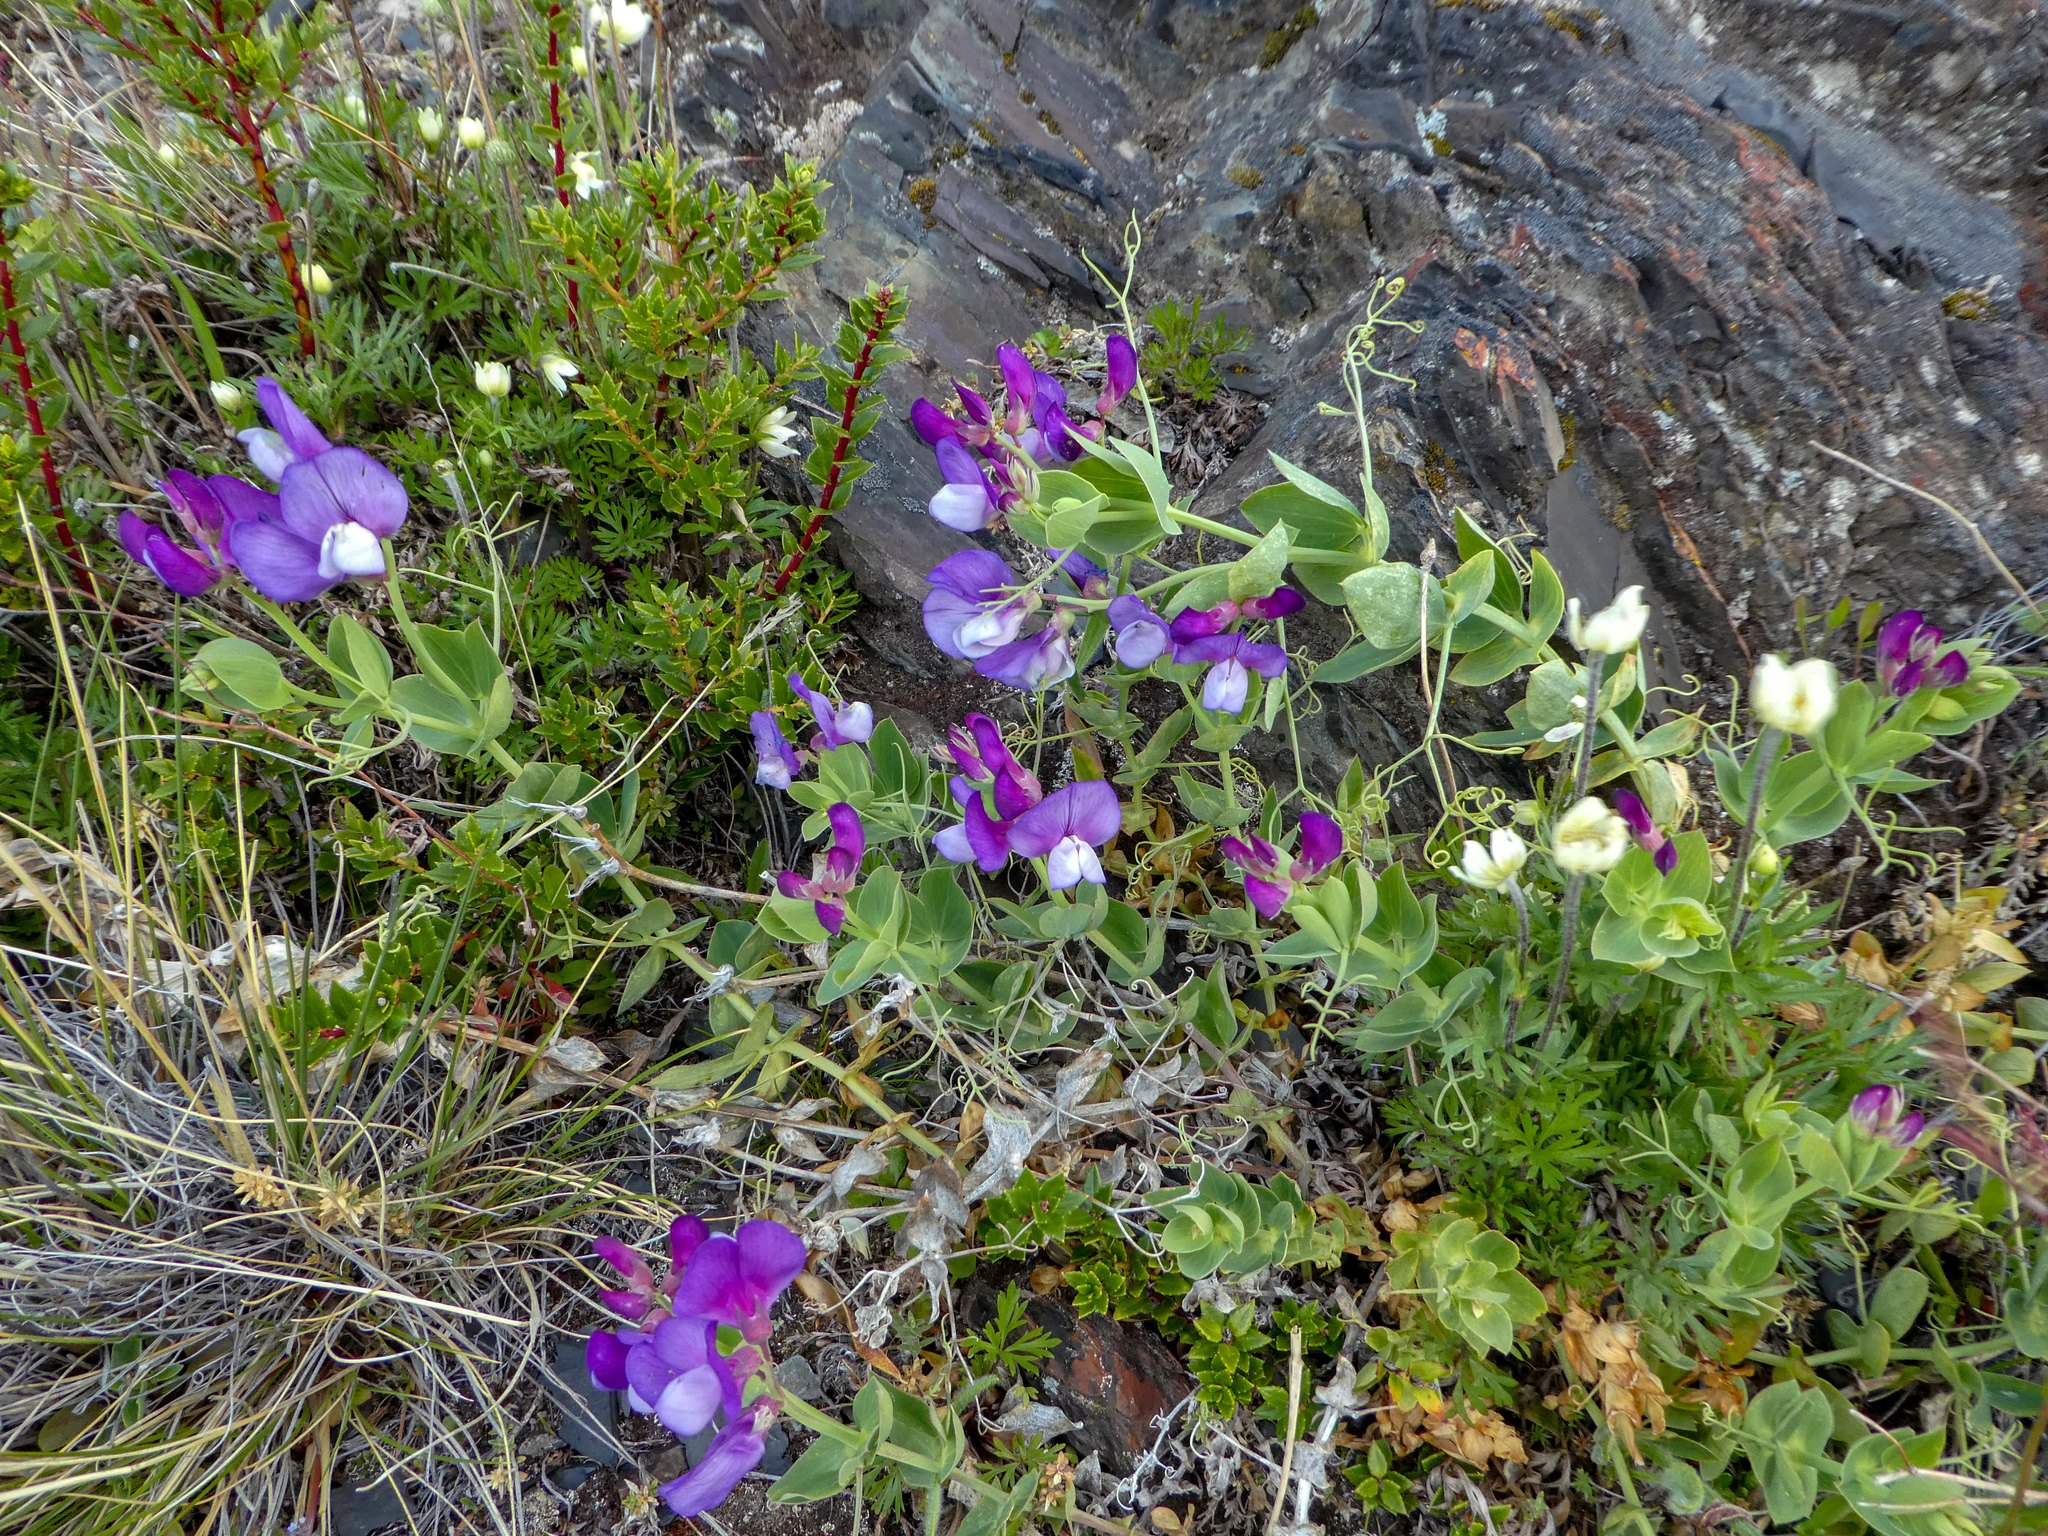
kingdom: Plantae
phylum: Tracheophyta
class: Magnoliopsida
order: Fabales
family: Fabaceae
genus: Lathyrus
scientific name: Lathyrus magellanicus
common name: Lord anson's pea
